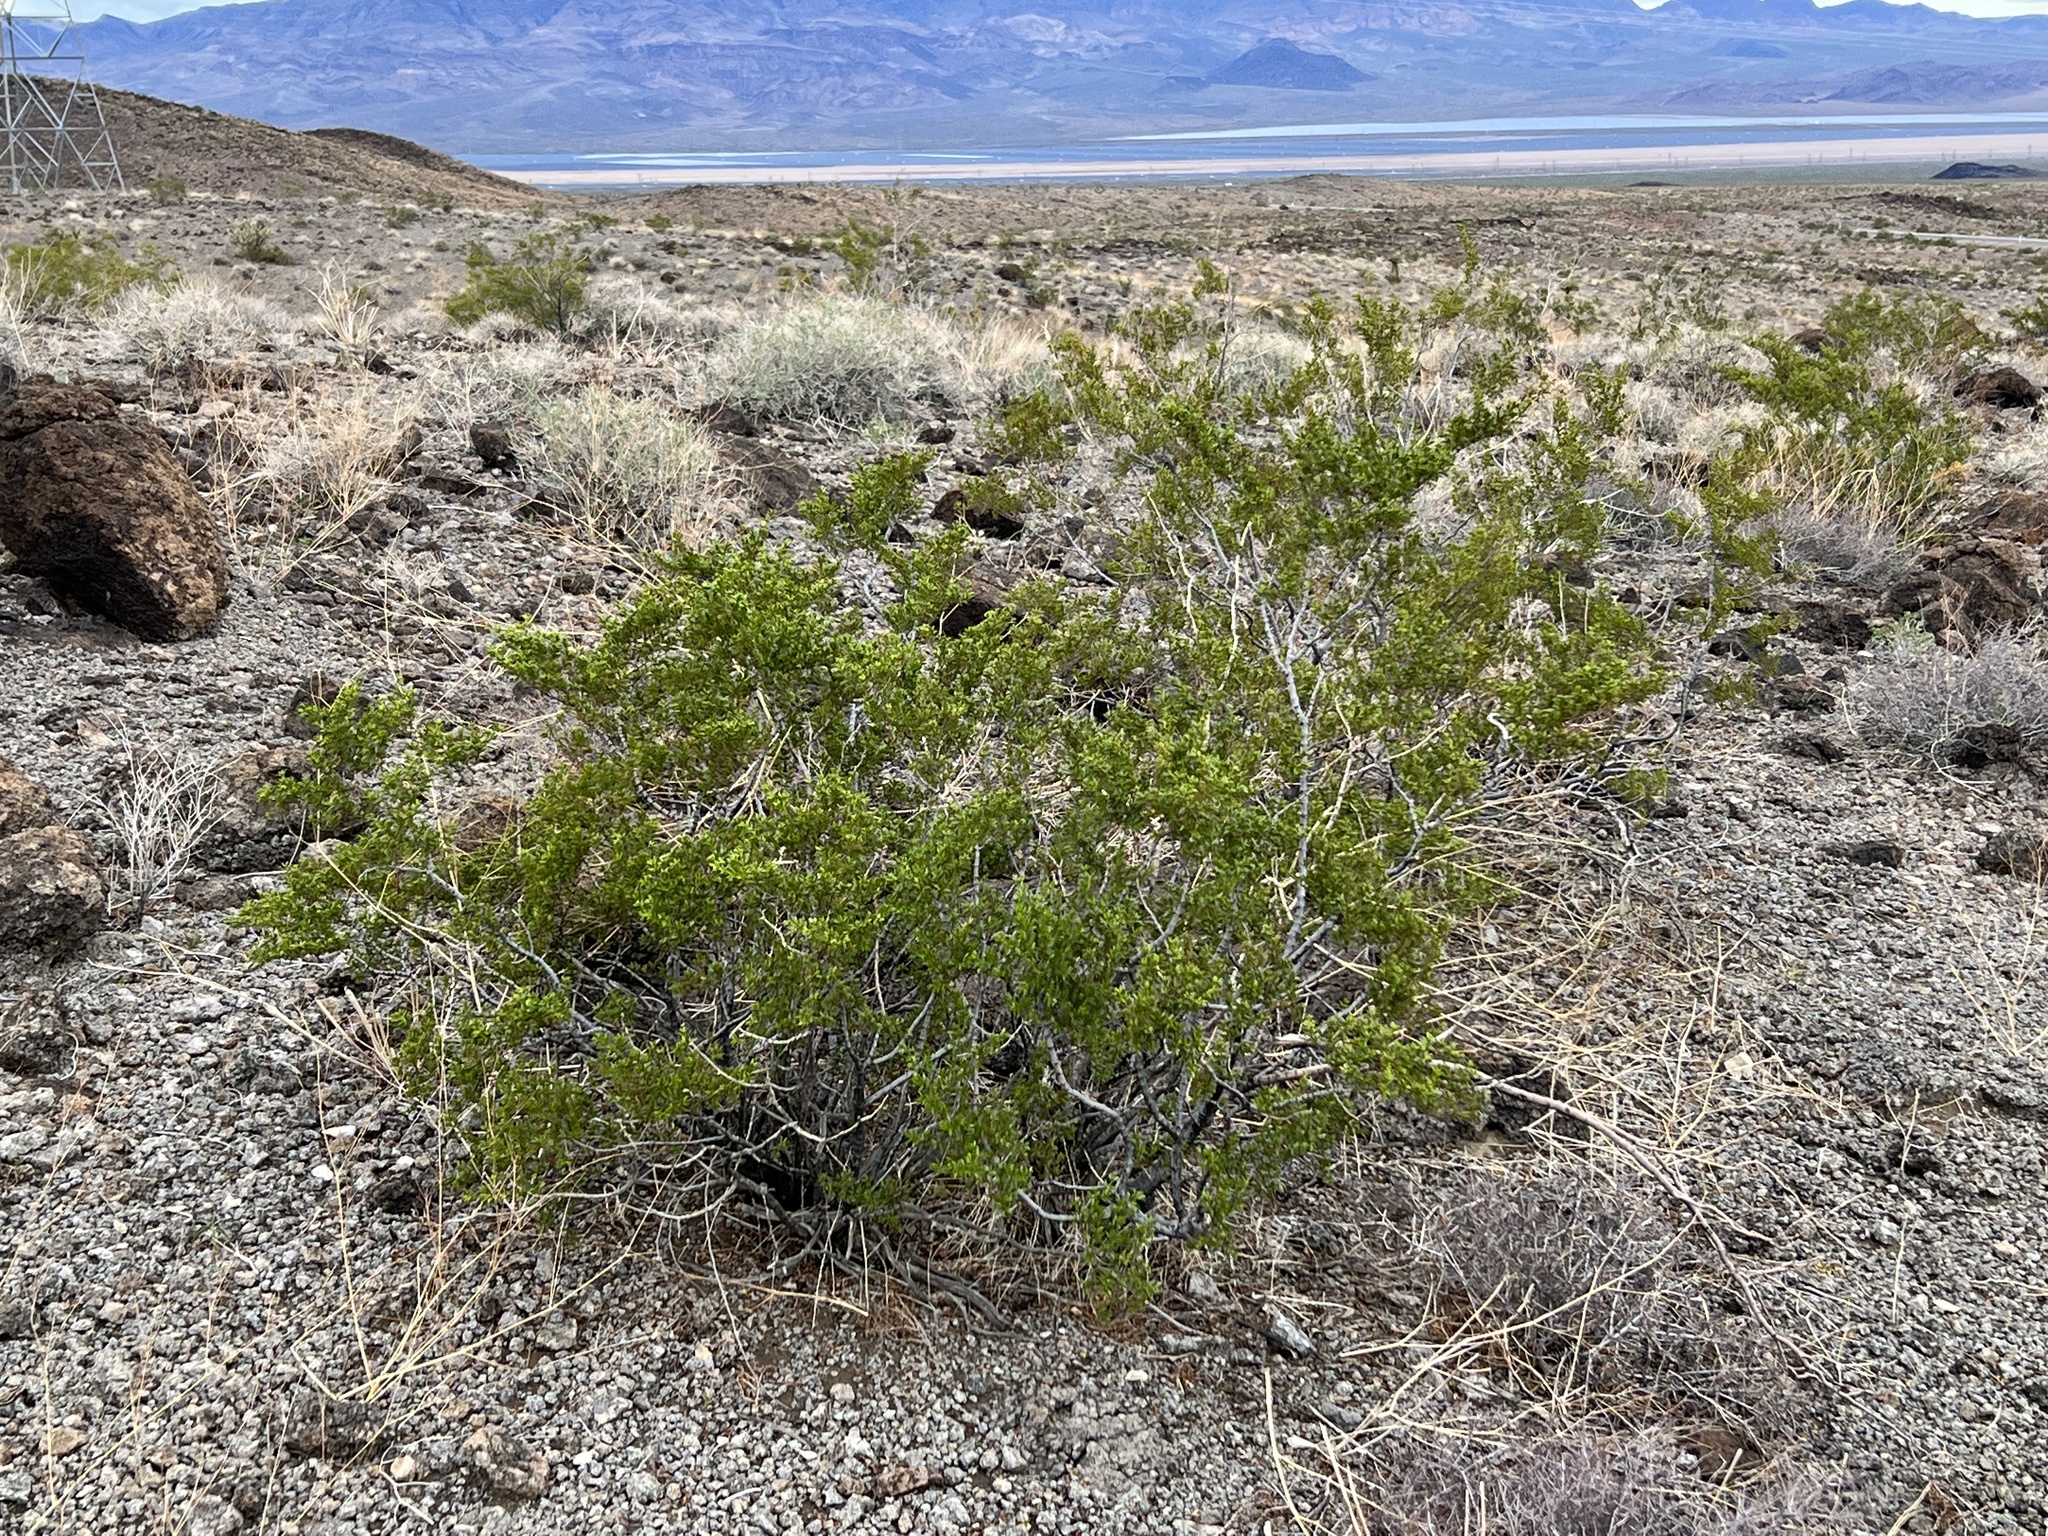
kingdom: Plantae
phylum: Tracheophyta
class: Magnoliopsida
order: Zygophyllales
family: Zygophyllaceae
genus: Larrea
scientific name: Larrea tridentata
